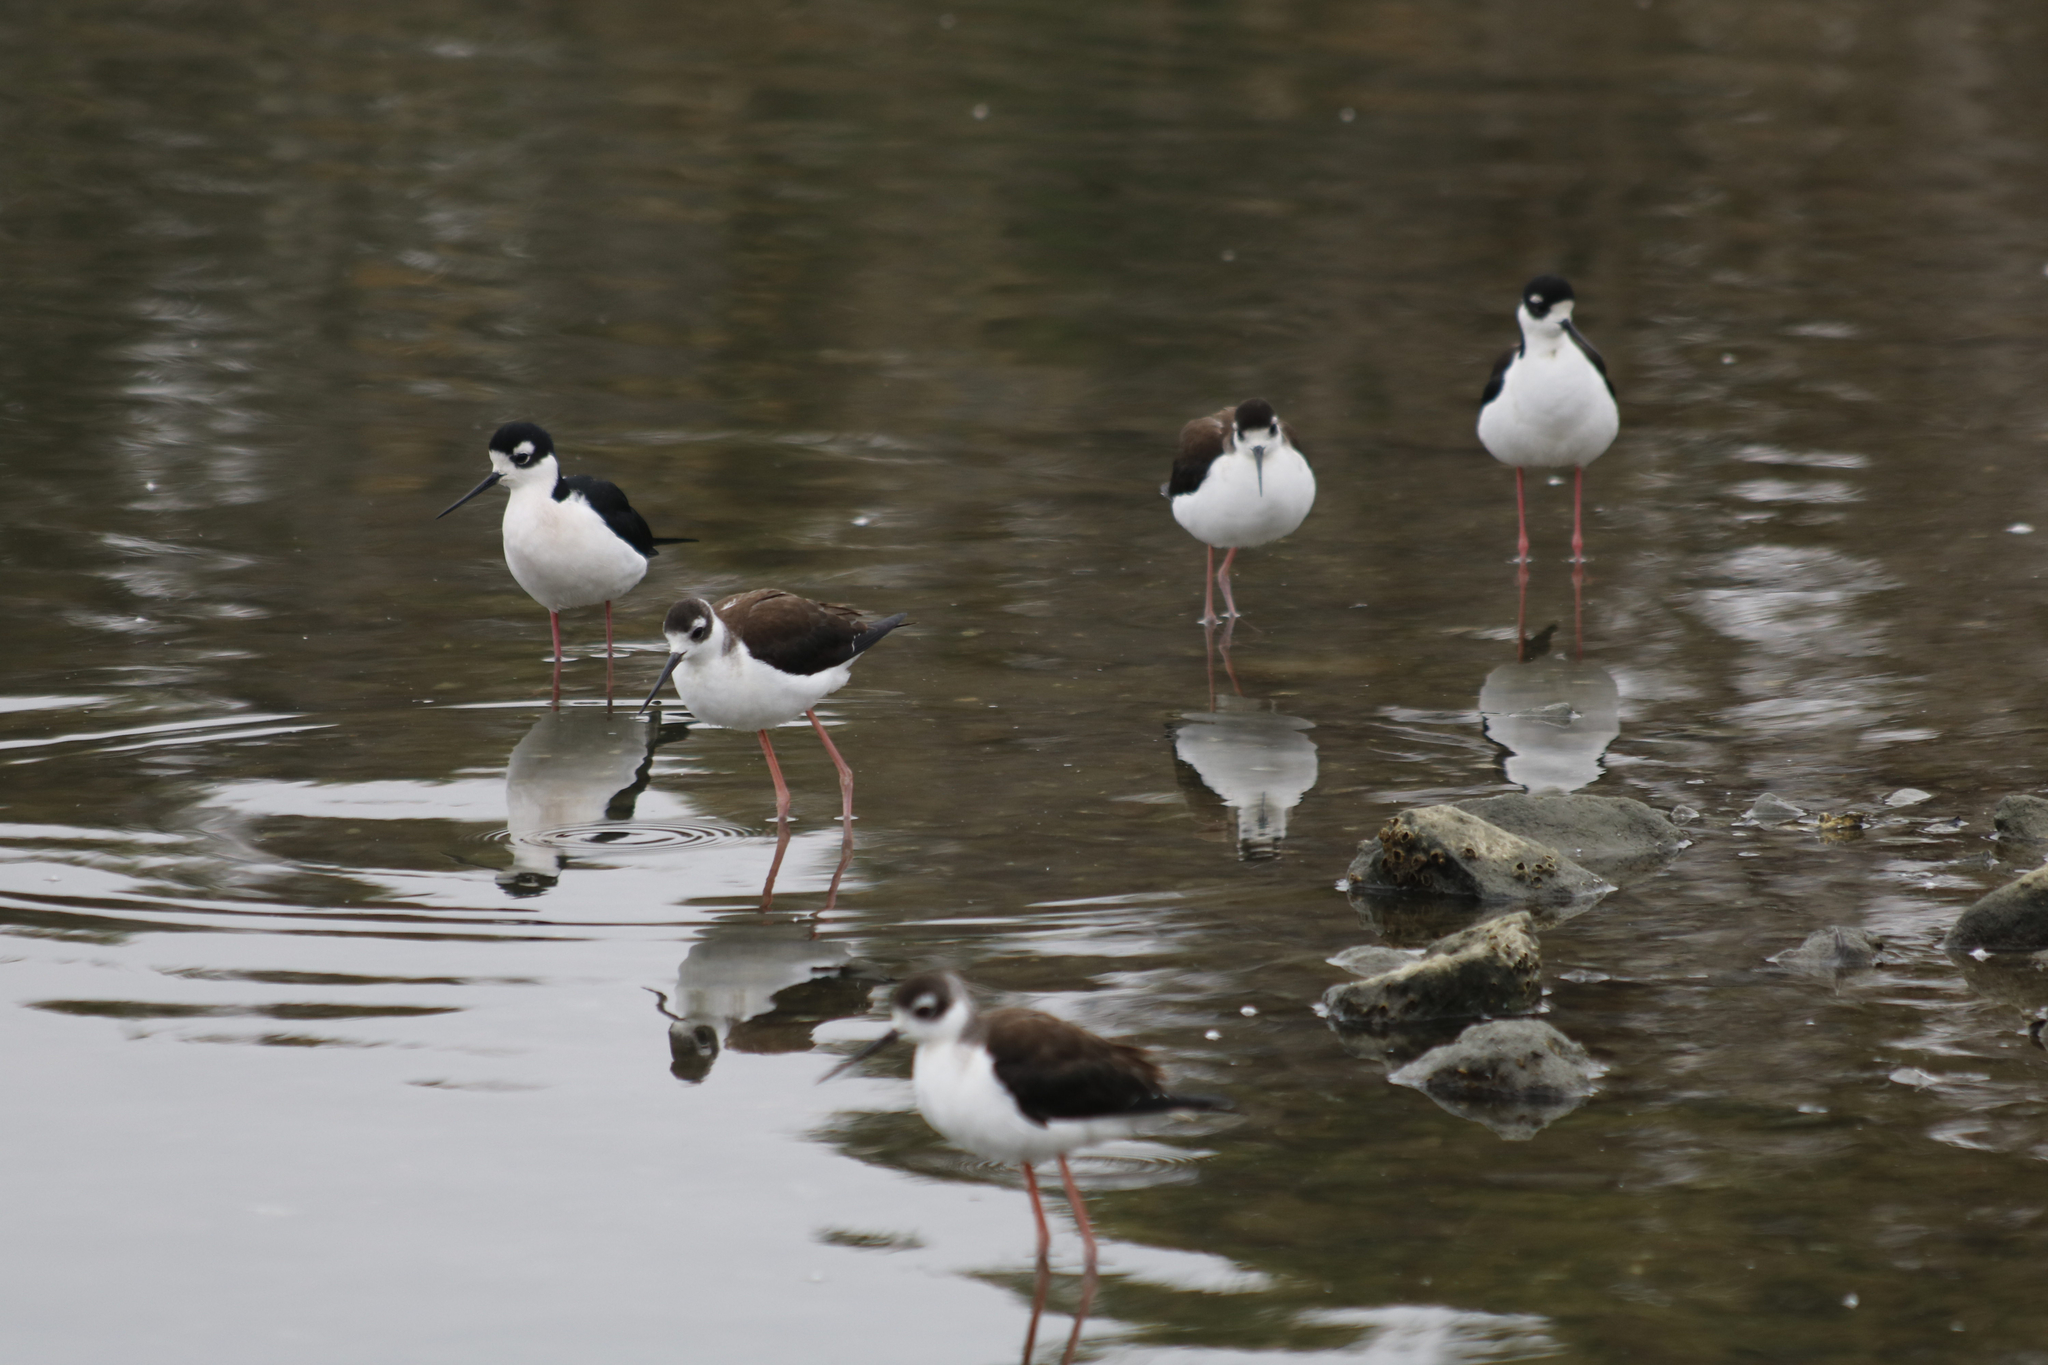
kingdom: Animalia
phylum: Chordata
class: Aves
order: Charadriiformes
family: Recurvirostridae
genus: Himantopus
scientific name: Himantopus mexicanus
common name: Black-necked stilt
